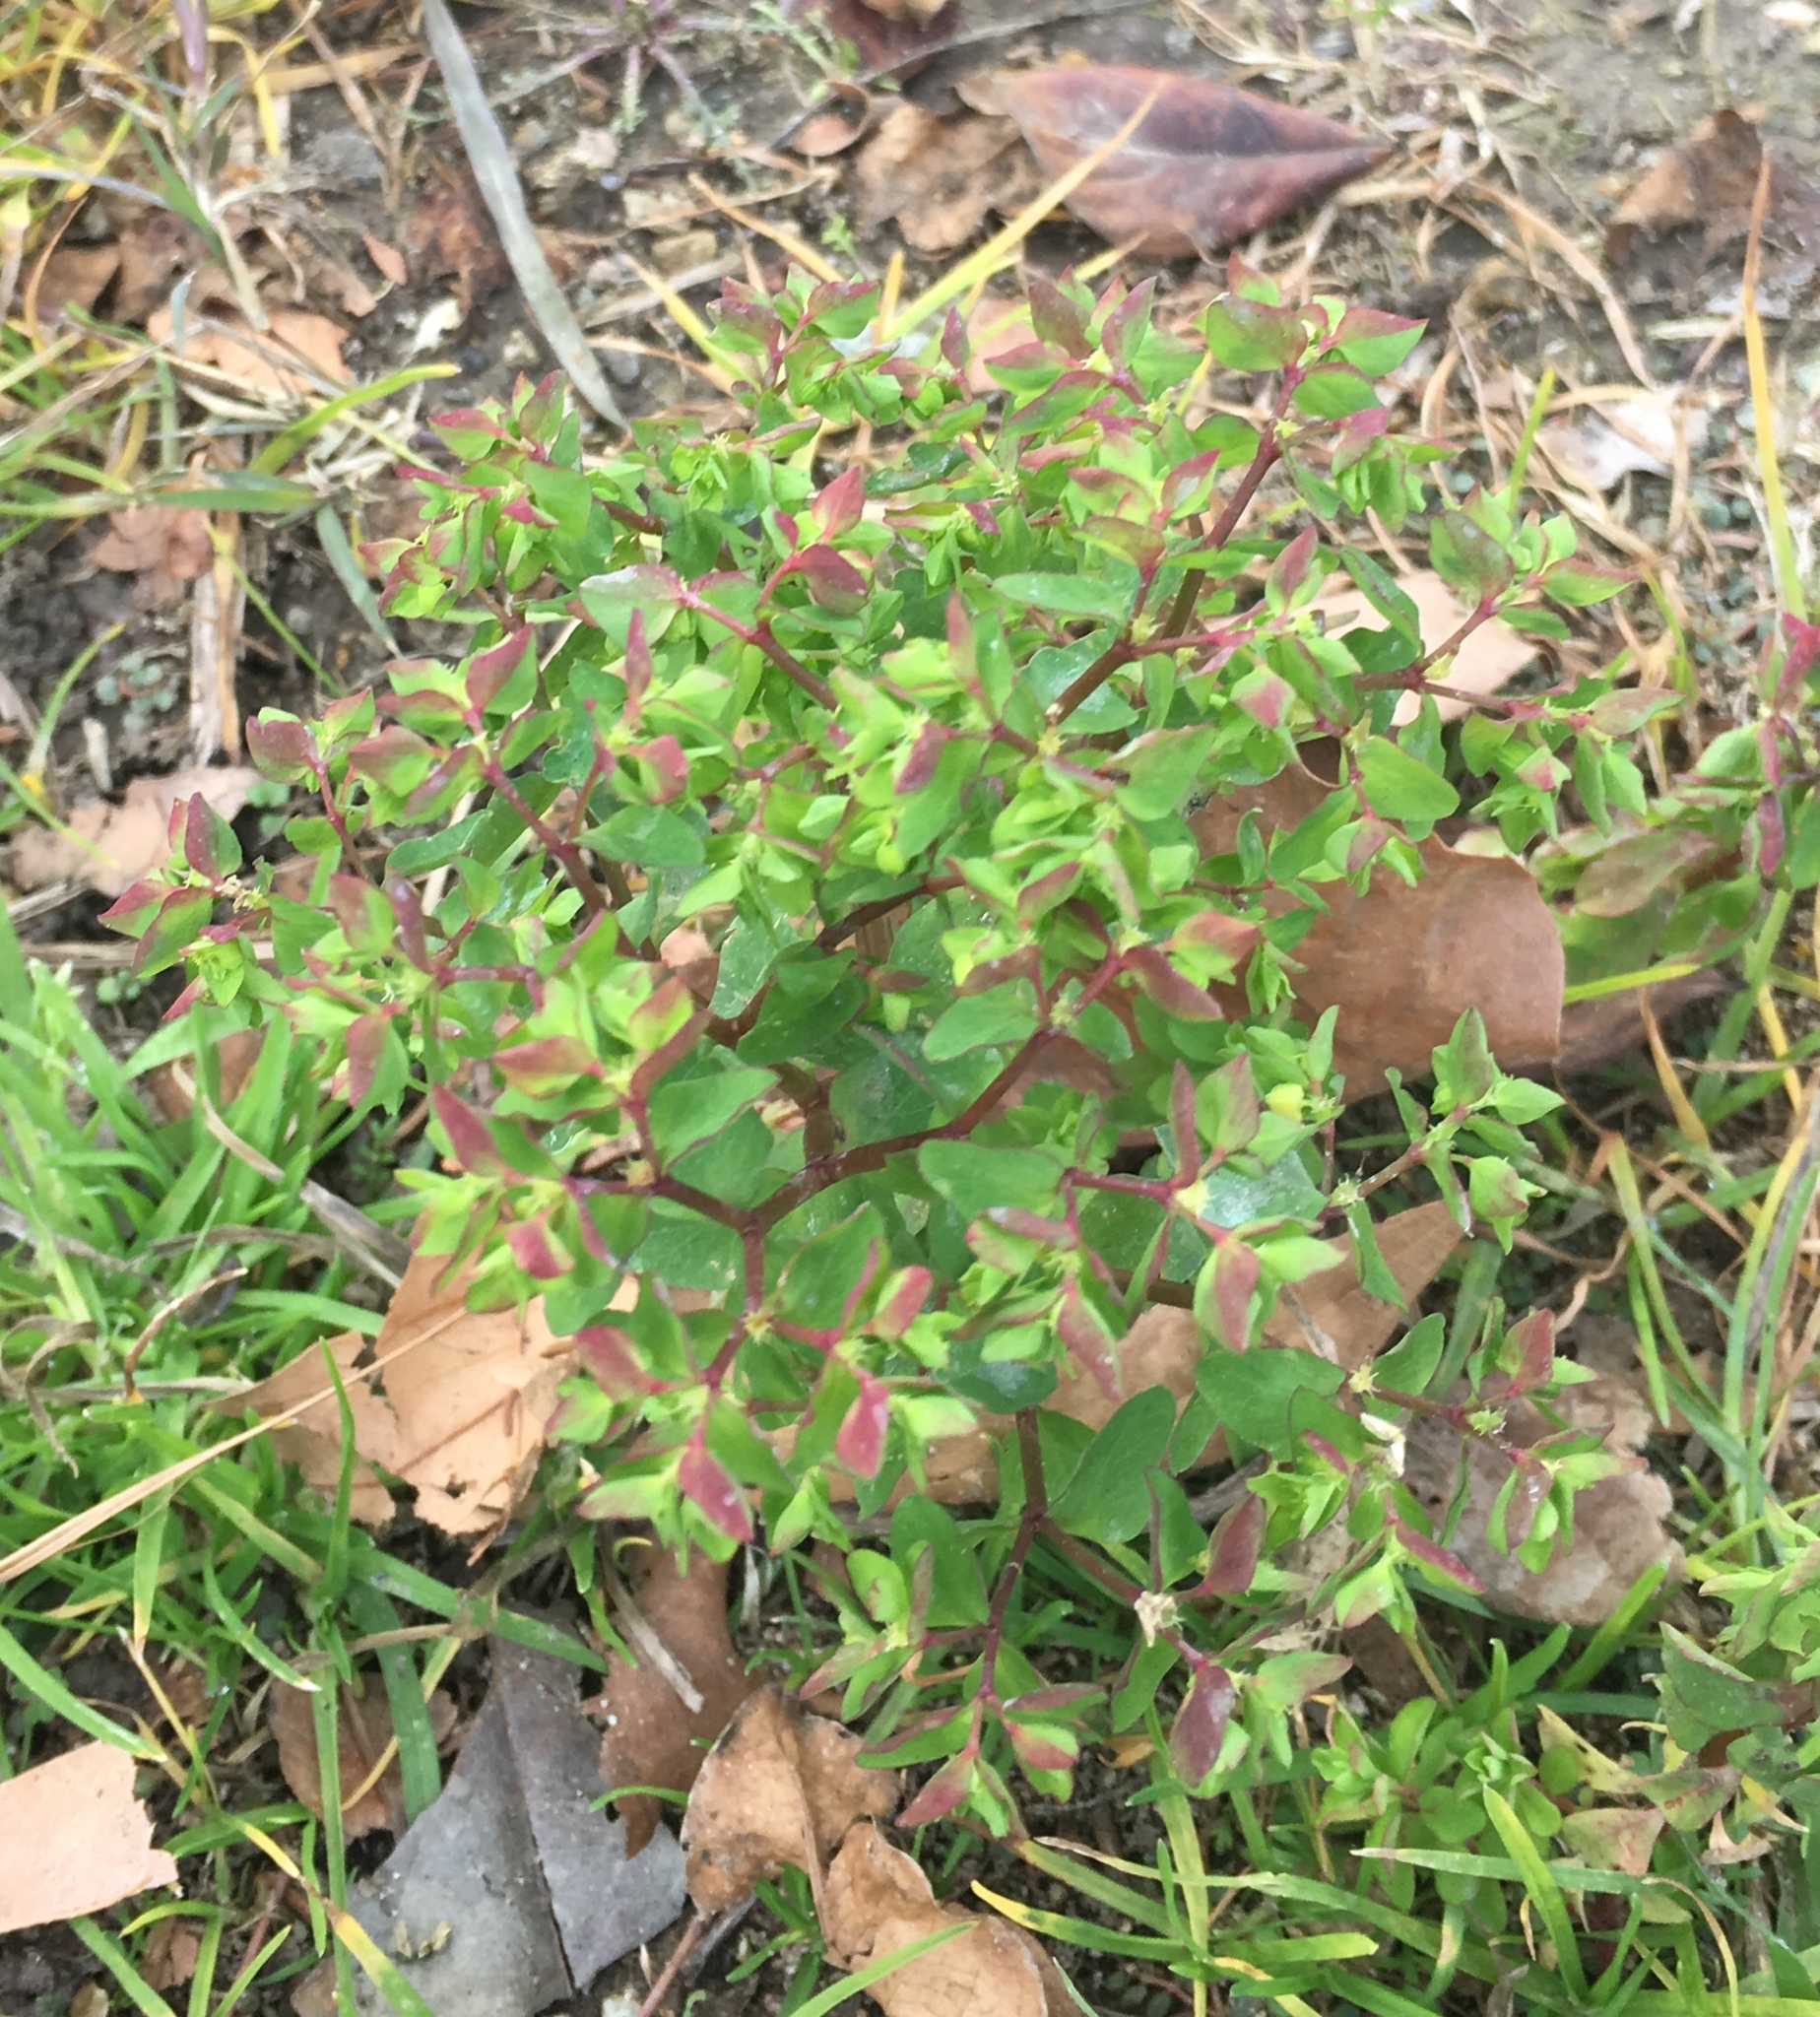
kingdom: Plantae
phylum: Tracheophyta
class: Magnoliopsida
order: Malpighiales
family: Euphorbiaceae
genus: Euphorbia
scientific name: Euphorbia peplus
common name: Petty spurge
